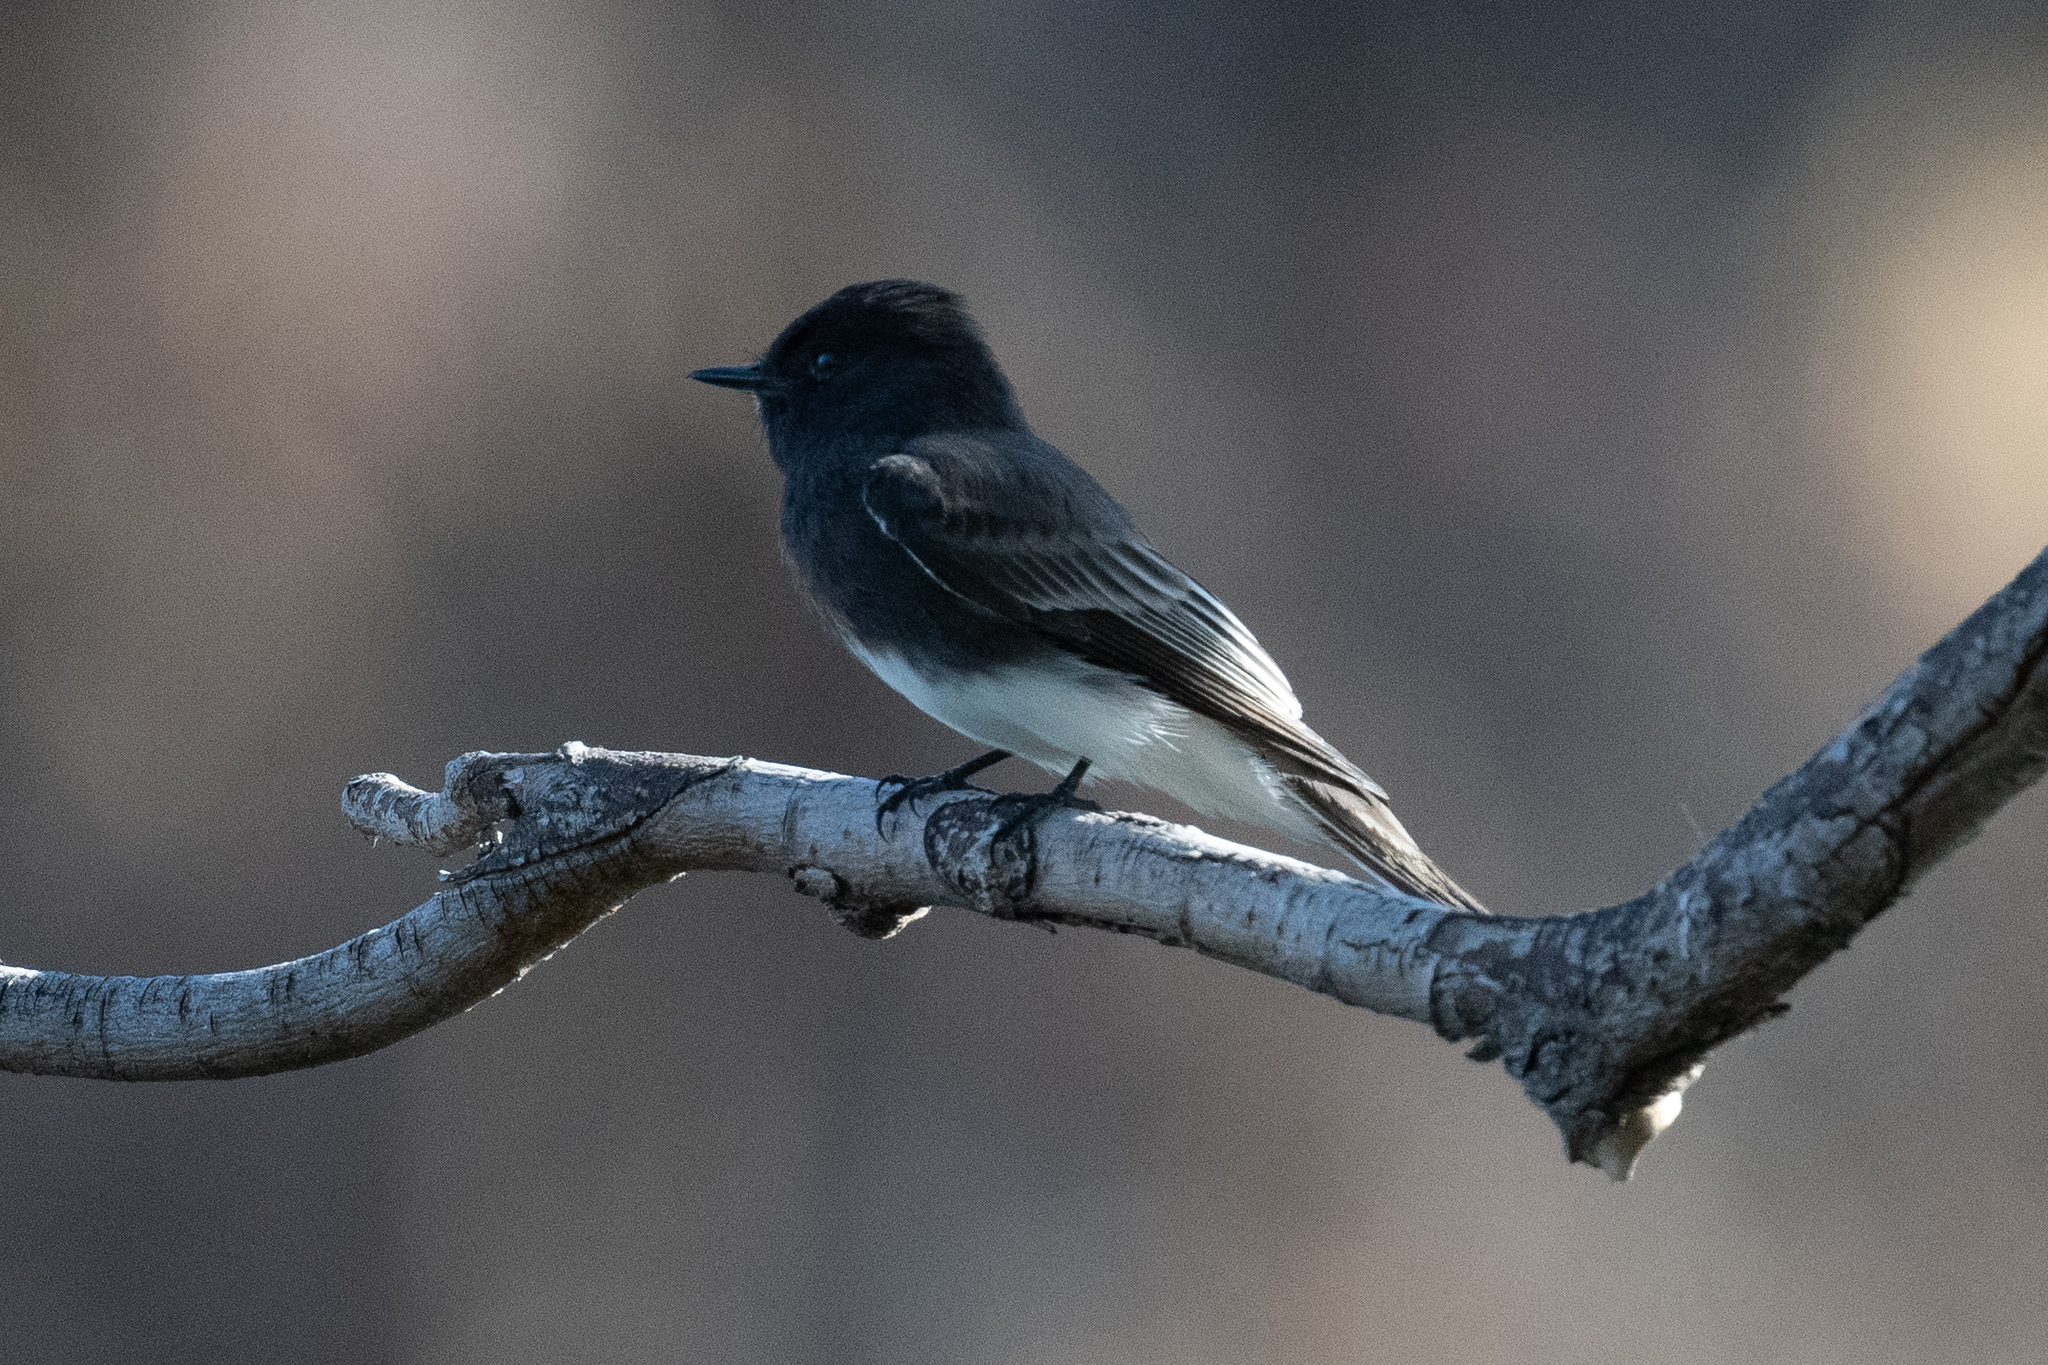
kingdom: Animalia
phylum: Chordata
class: Aves
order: Passeriformes
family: Tyrannidae
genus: Sayornis
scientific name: Sayornis nigricans
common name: Black phoebe
